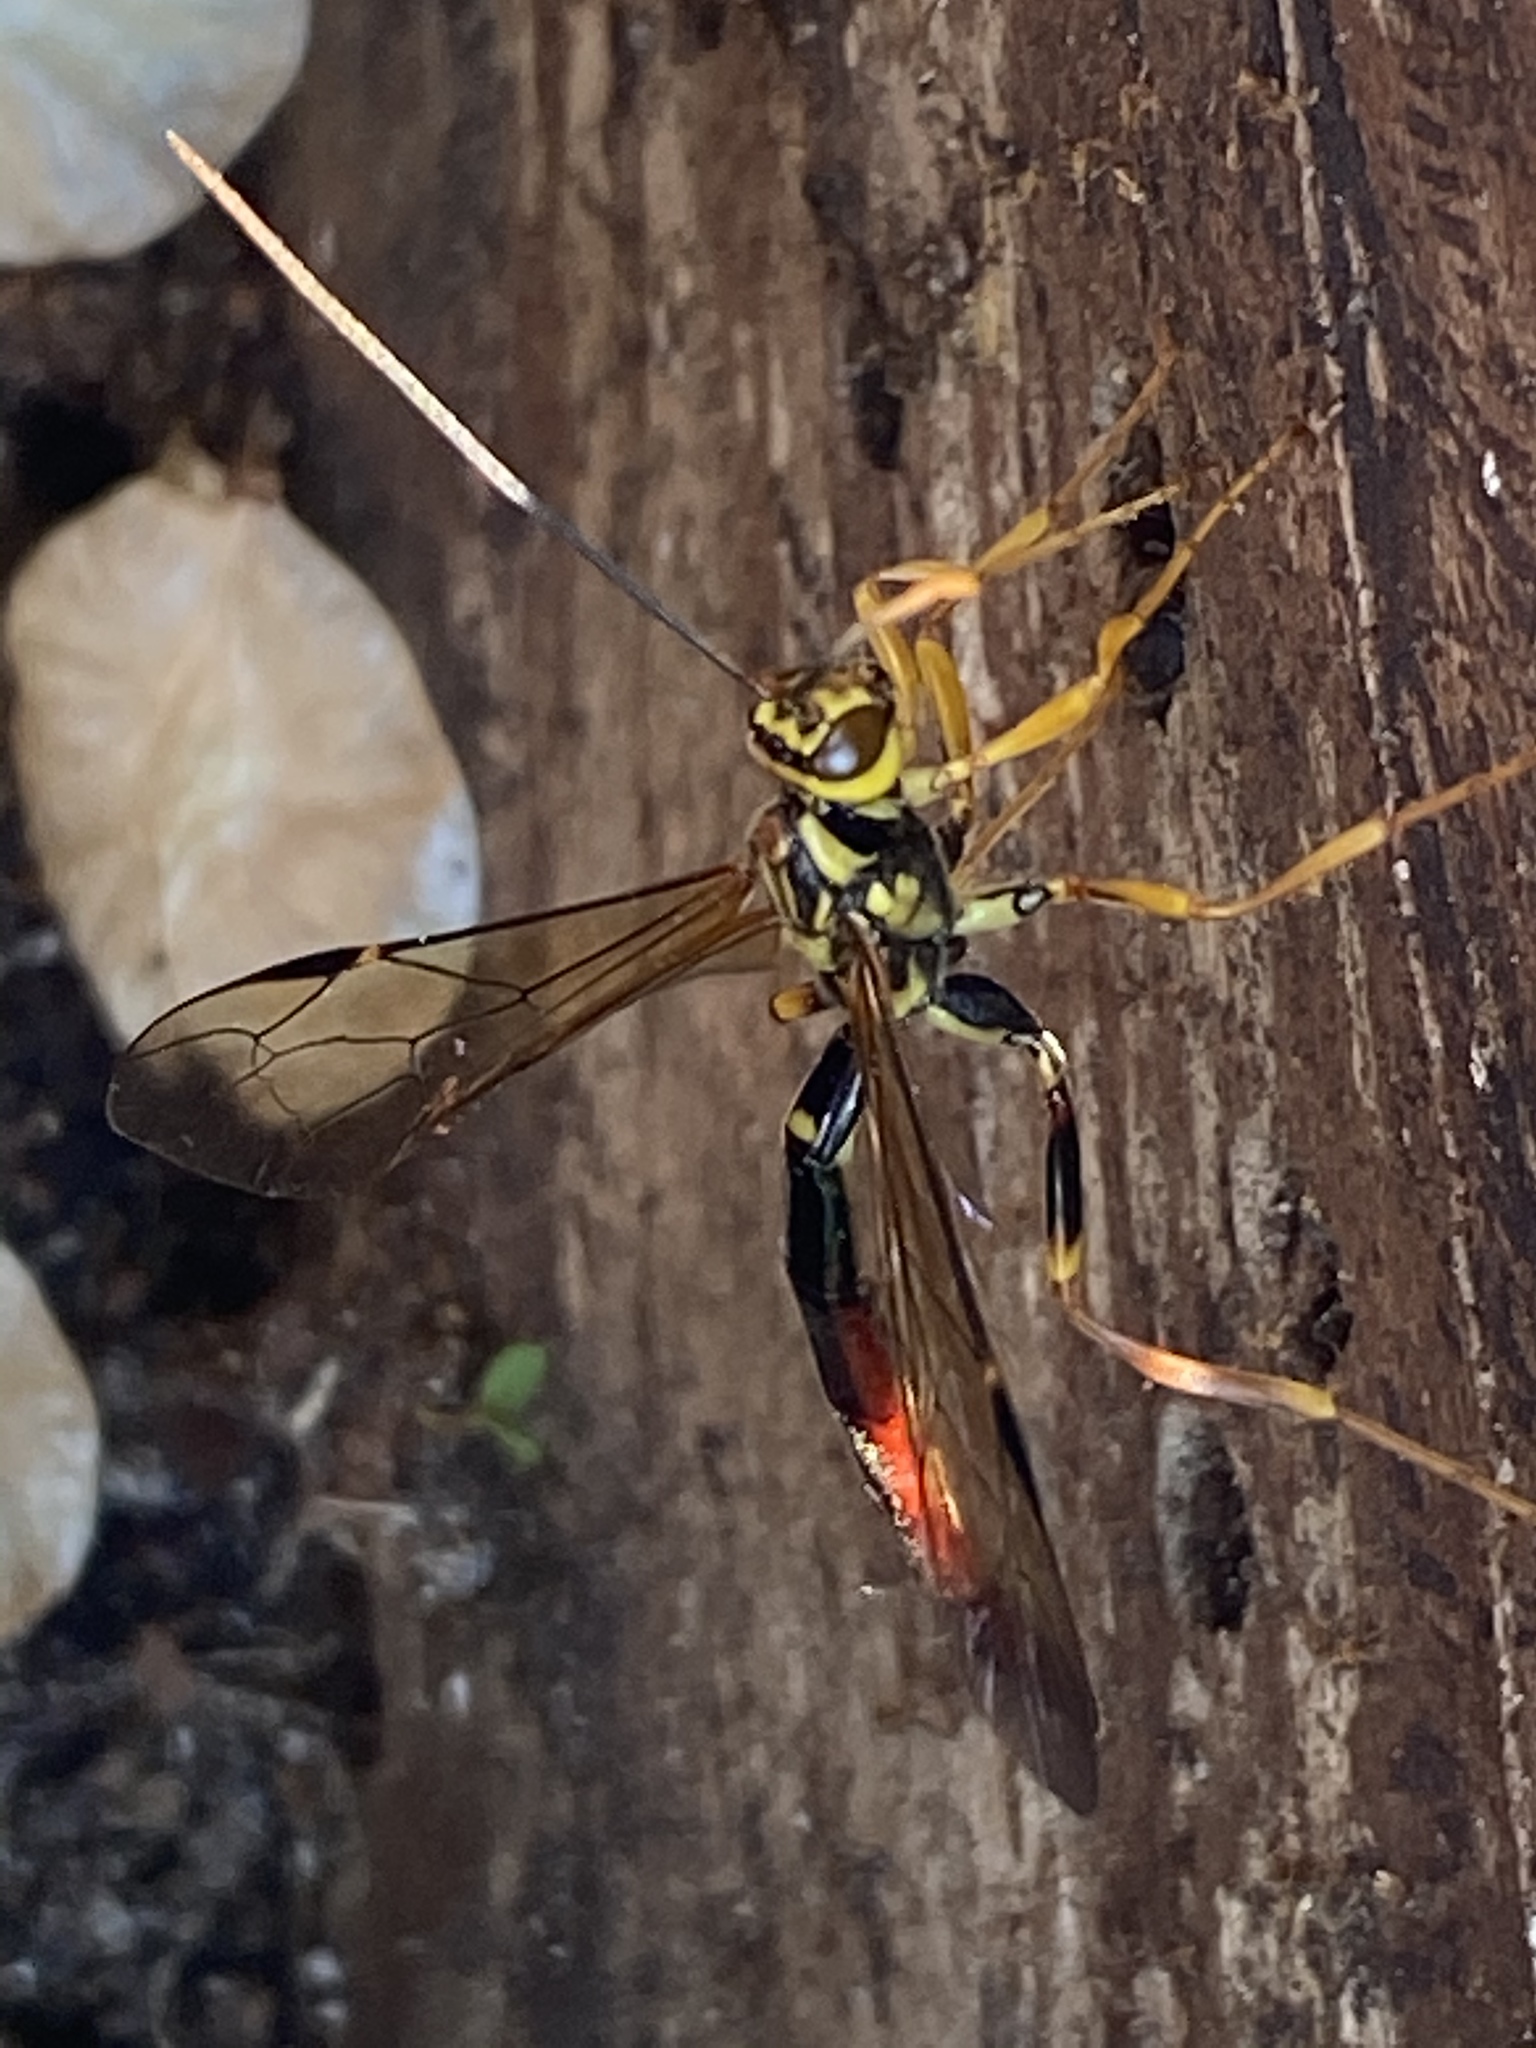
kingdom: Animalia
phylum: Arthropoda
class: Insecta
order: Hymenoptera
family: Ichneumonidae
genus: Megarhyssa
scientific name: Megarhyssa atrata
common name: Black giant ichneumonid wasp
